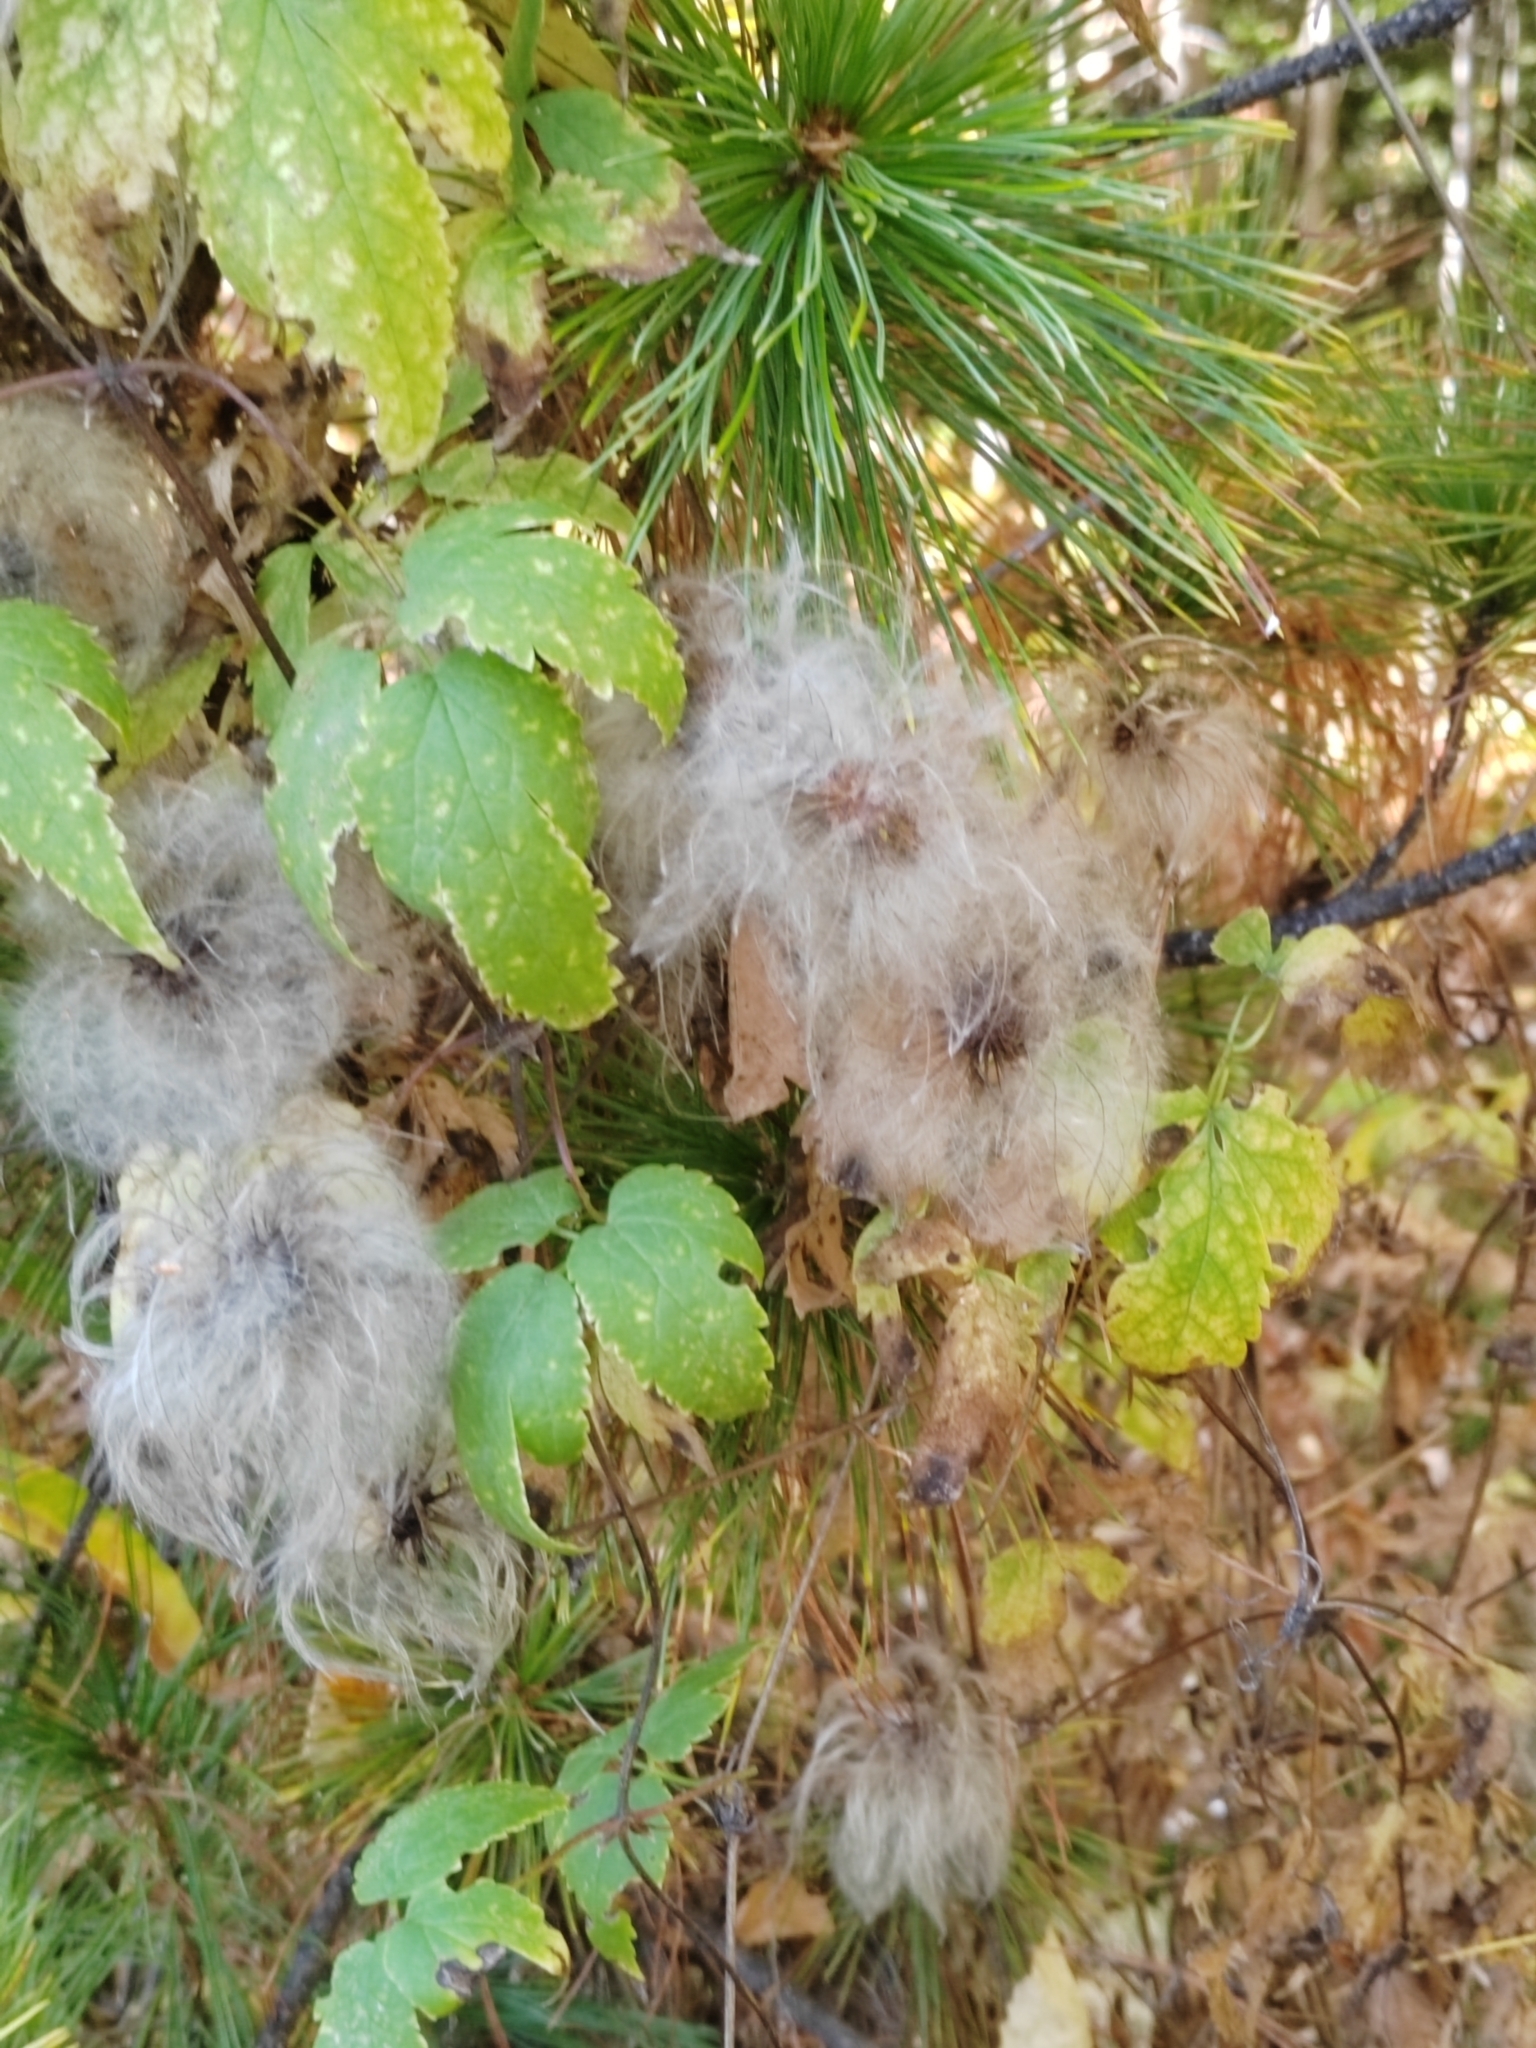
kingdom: Plantae
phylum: Tracheophyta
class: Magnoliopsida
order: Ranunculales
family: Ranunculaceae
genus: Clematis
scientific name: Clematis sibirica
